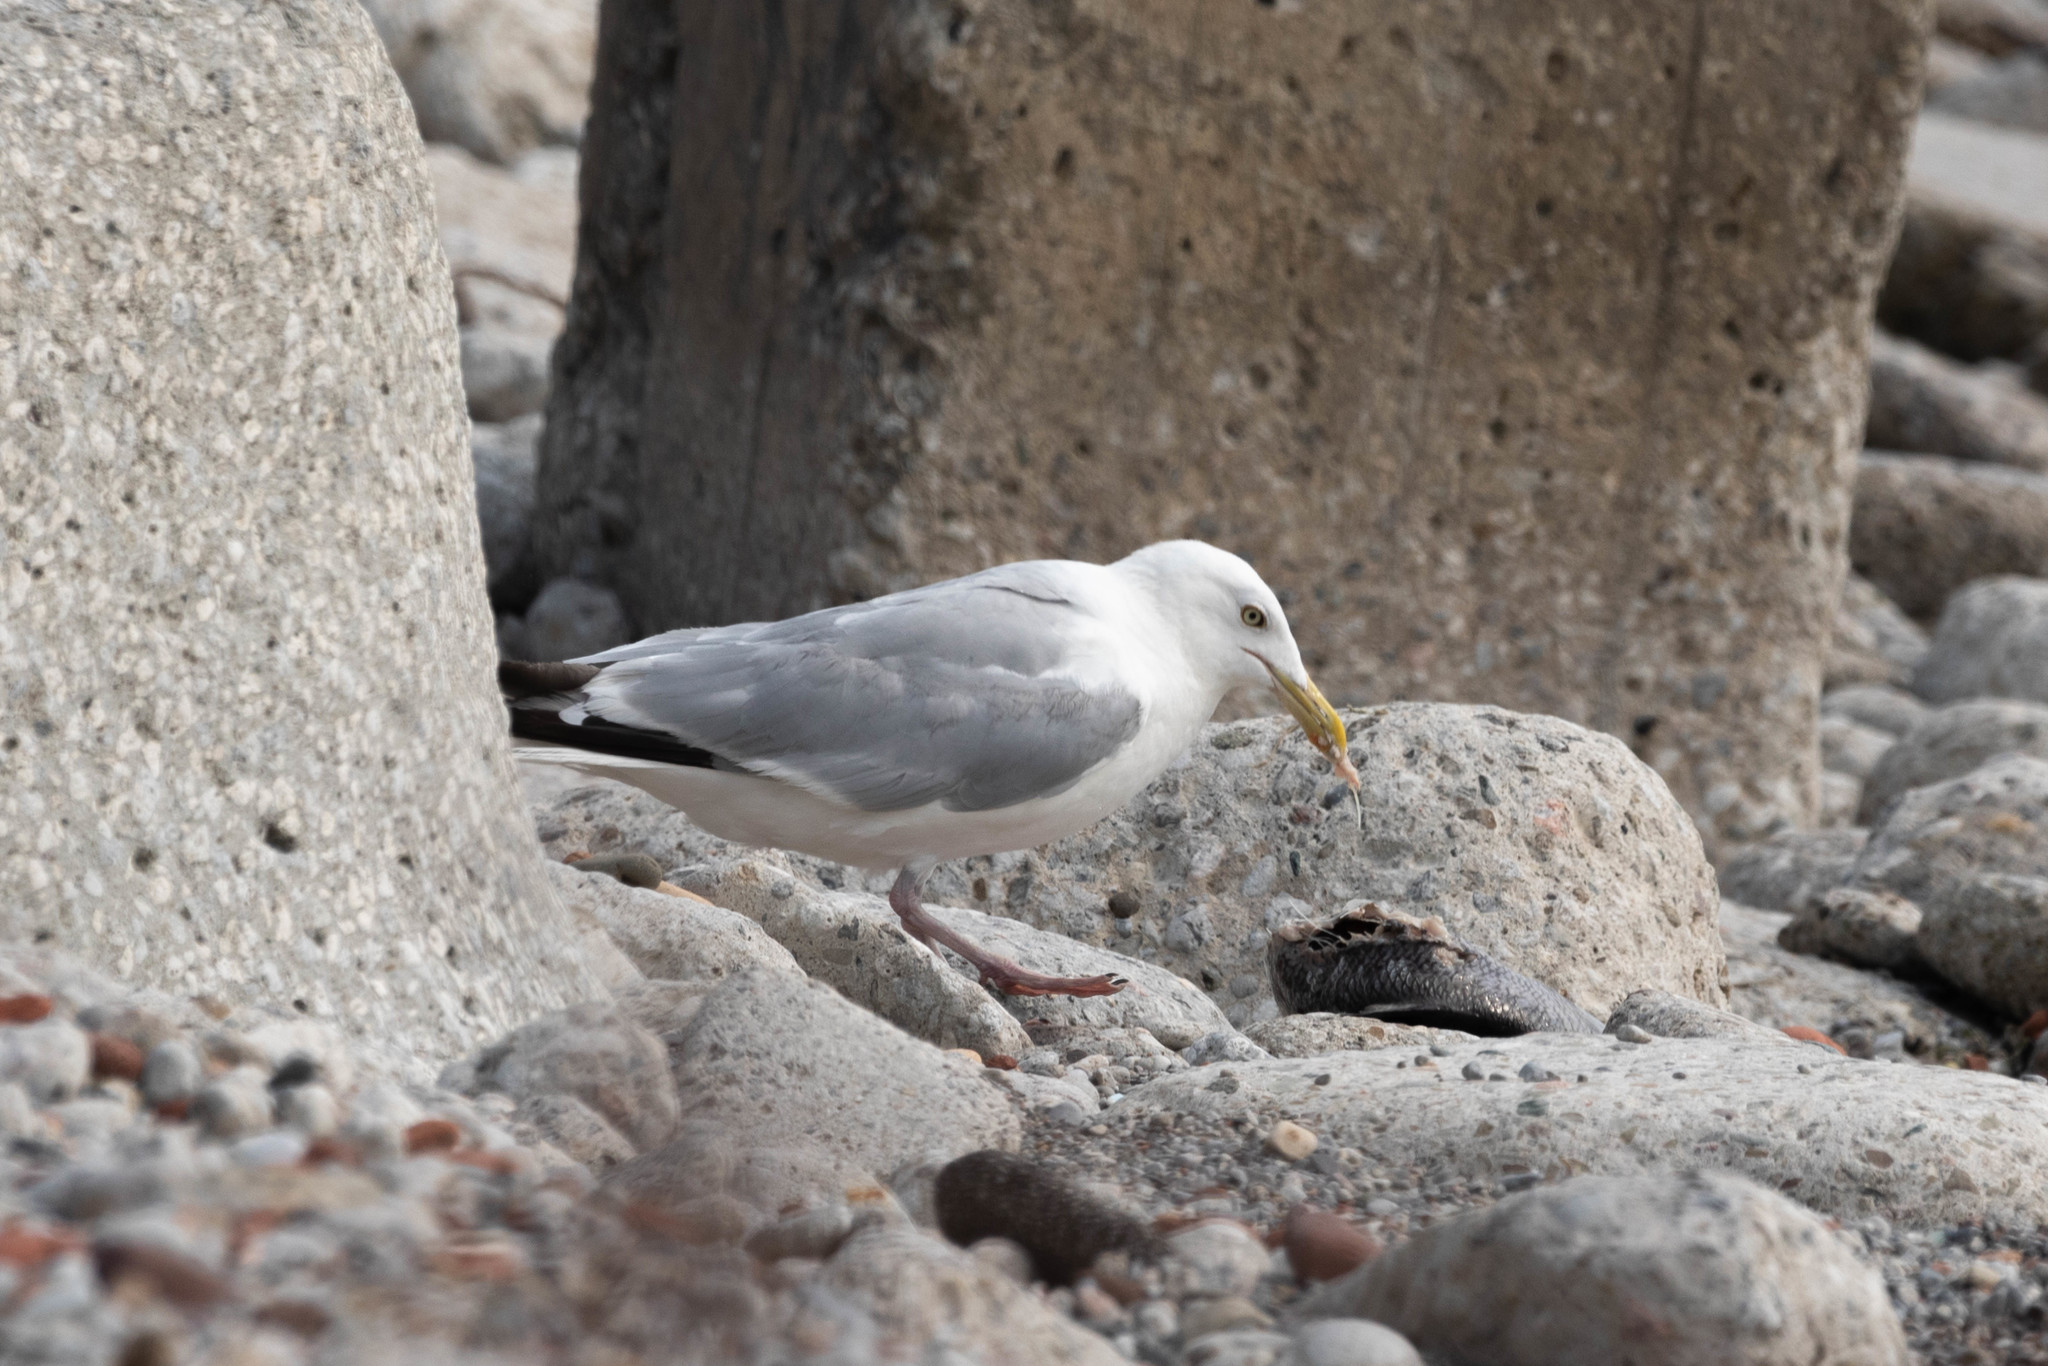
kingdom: Animalia
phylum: Chordata
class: Aves
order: Charadriiformes
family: Laridae
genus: Larus
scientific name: Larus argentatus
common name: Herring gull
